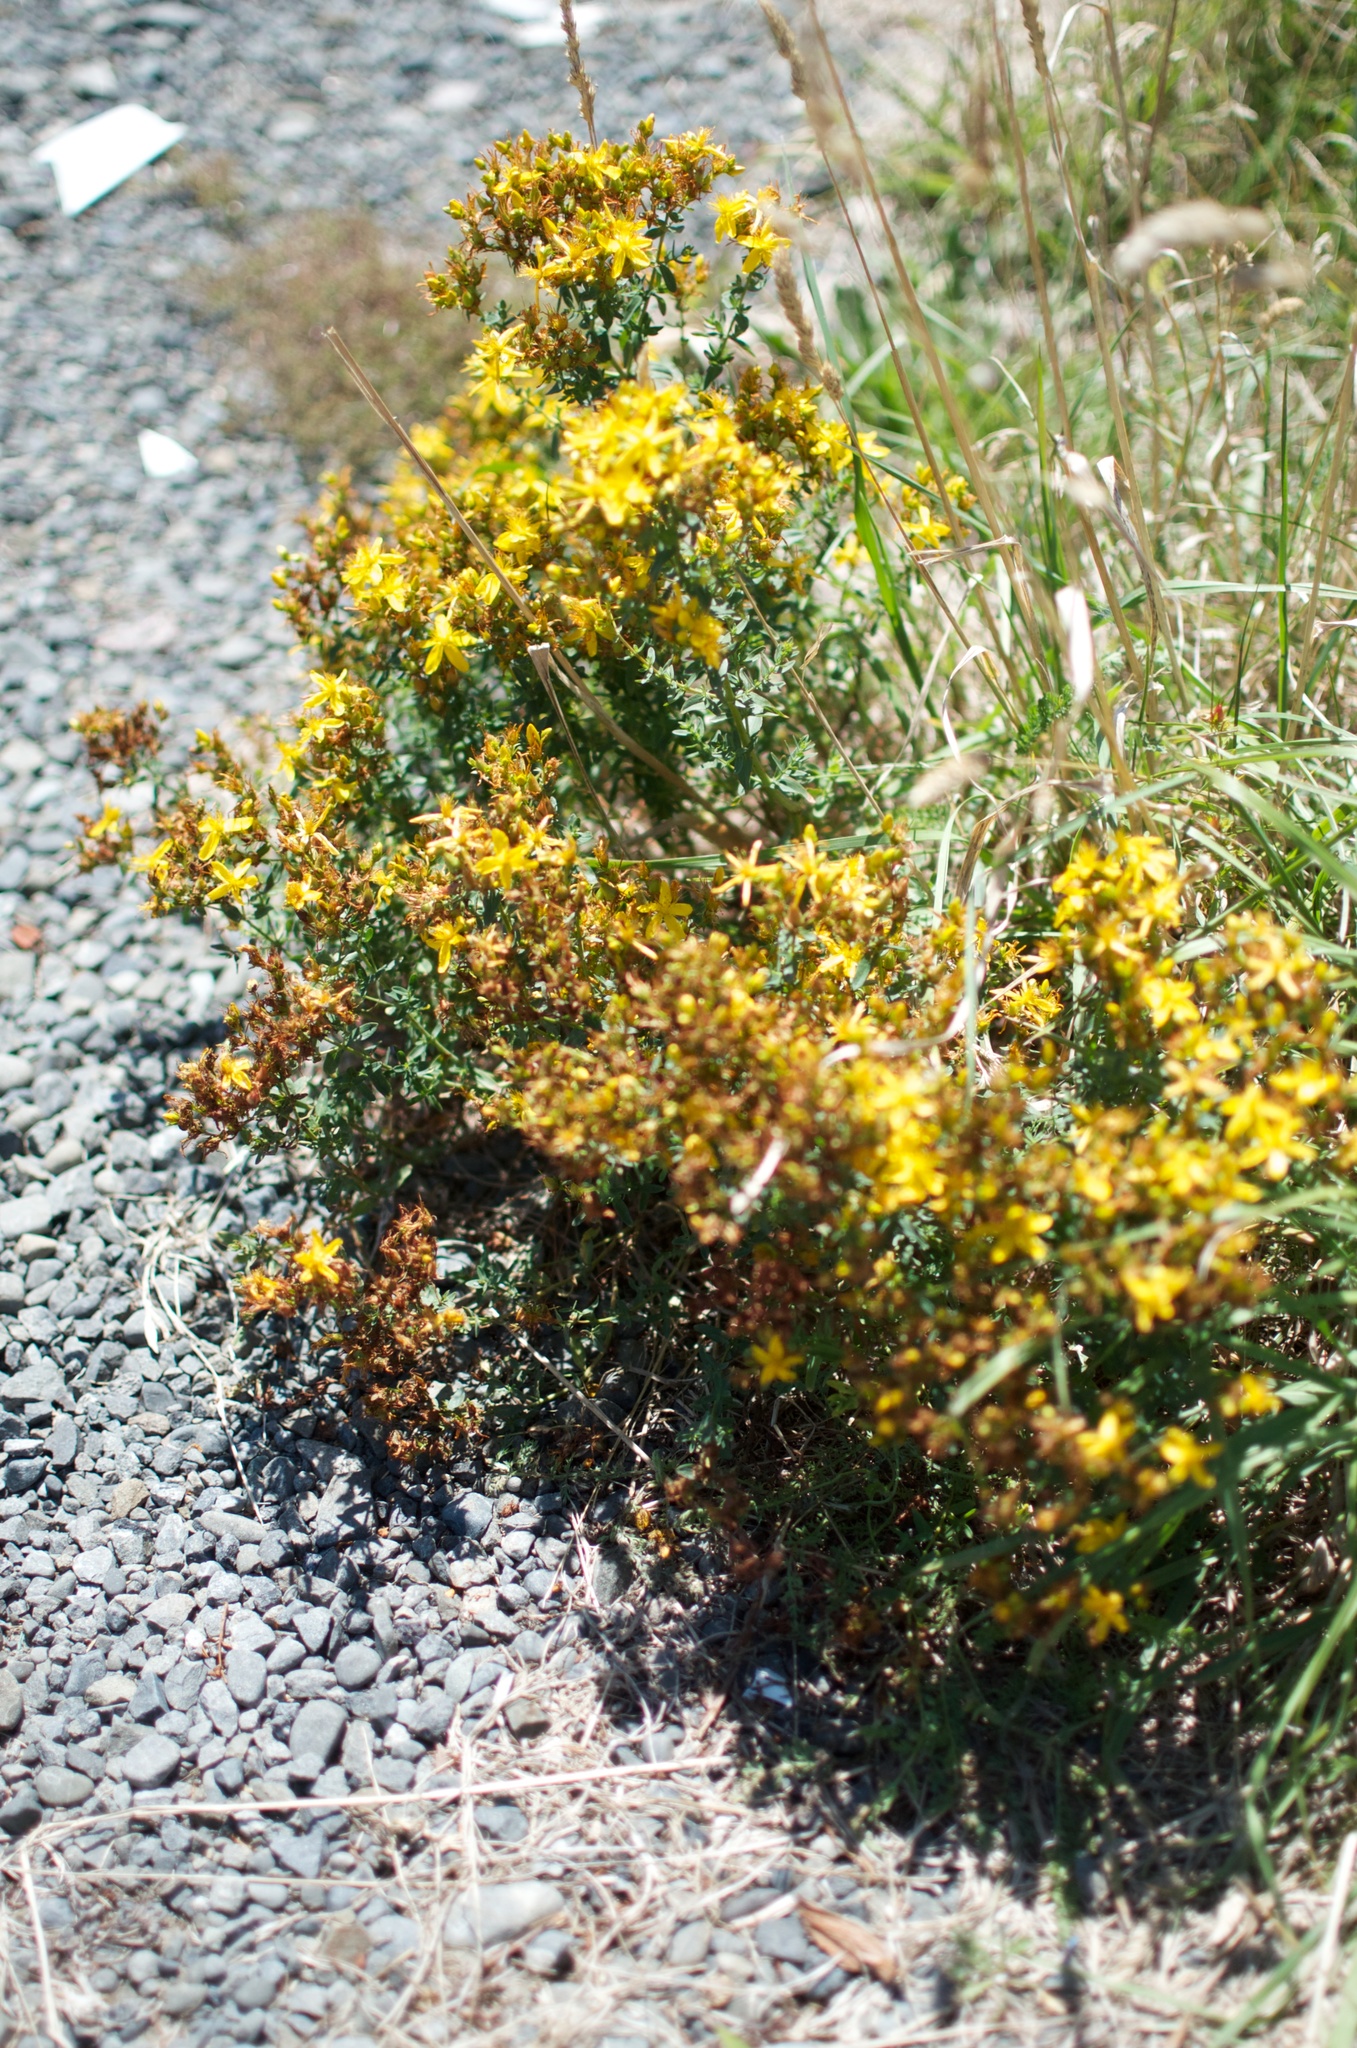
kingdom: Plantae
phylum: Tracheophyta
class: Magnoliopsida
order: Malpighiales
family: Hypericaceae
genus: Hypericum
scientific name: Hypericum perforatum
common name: Common st. johnswort
